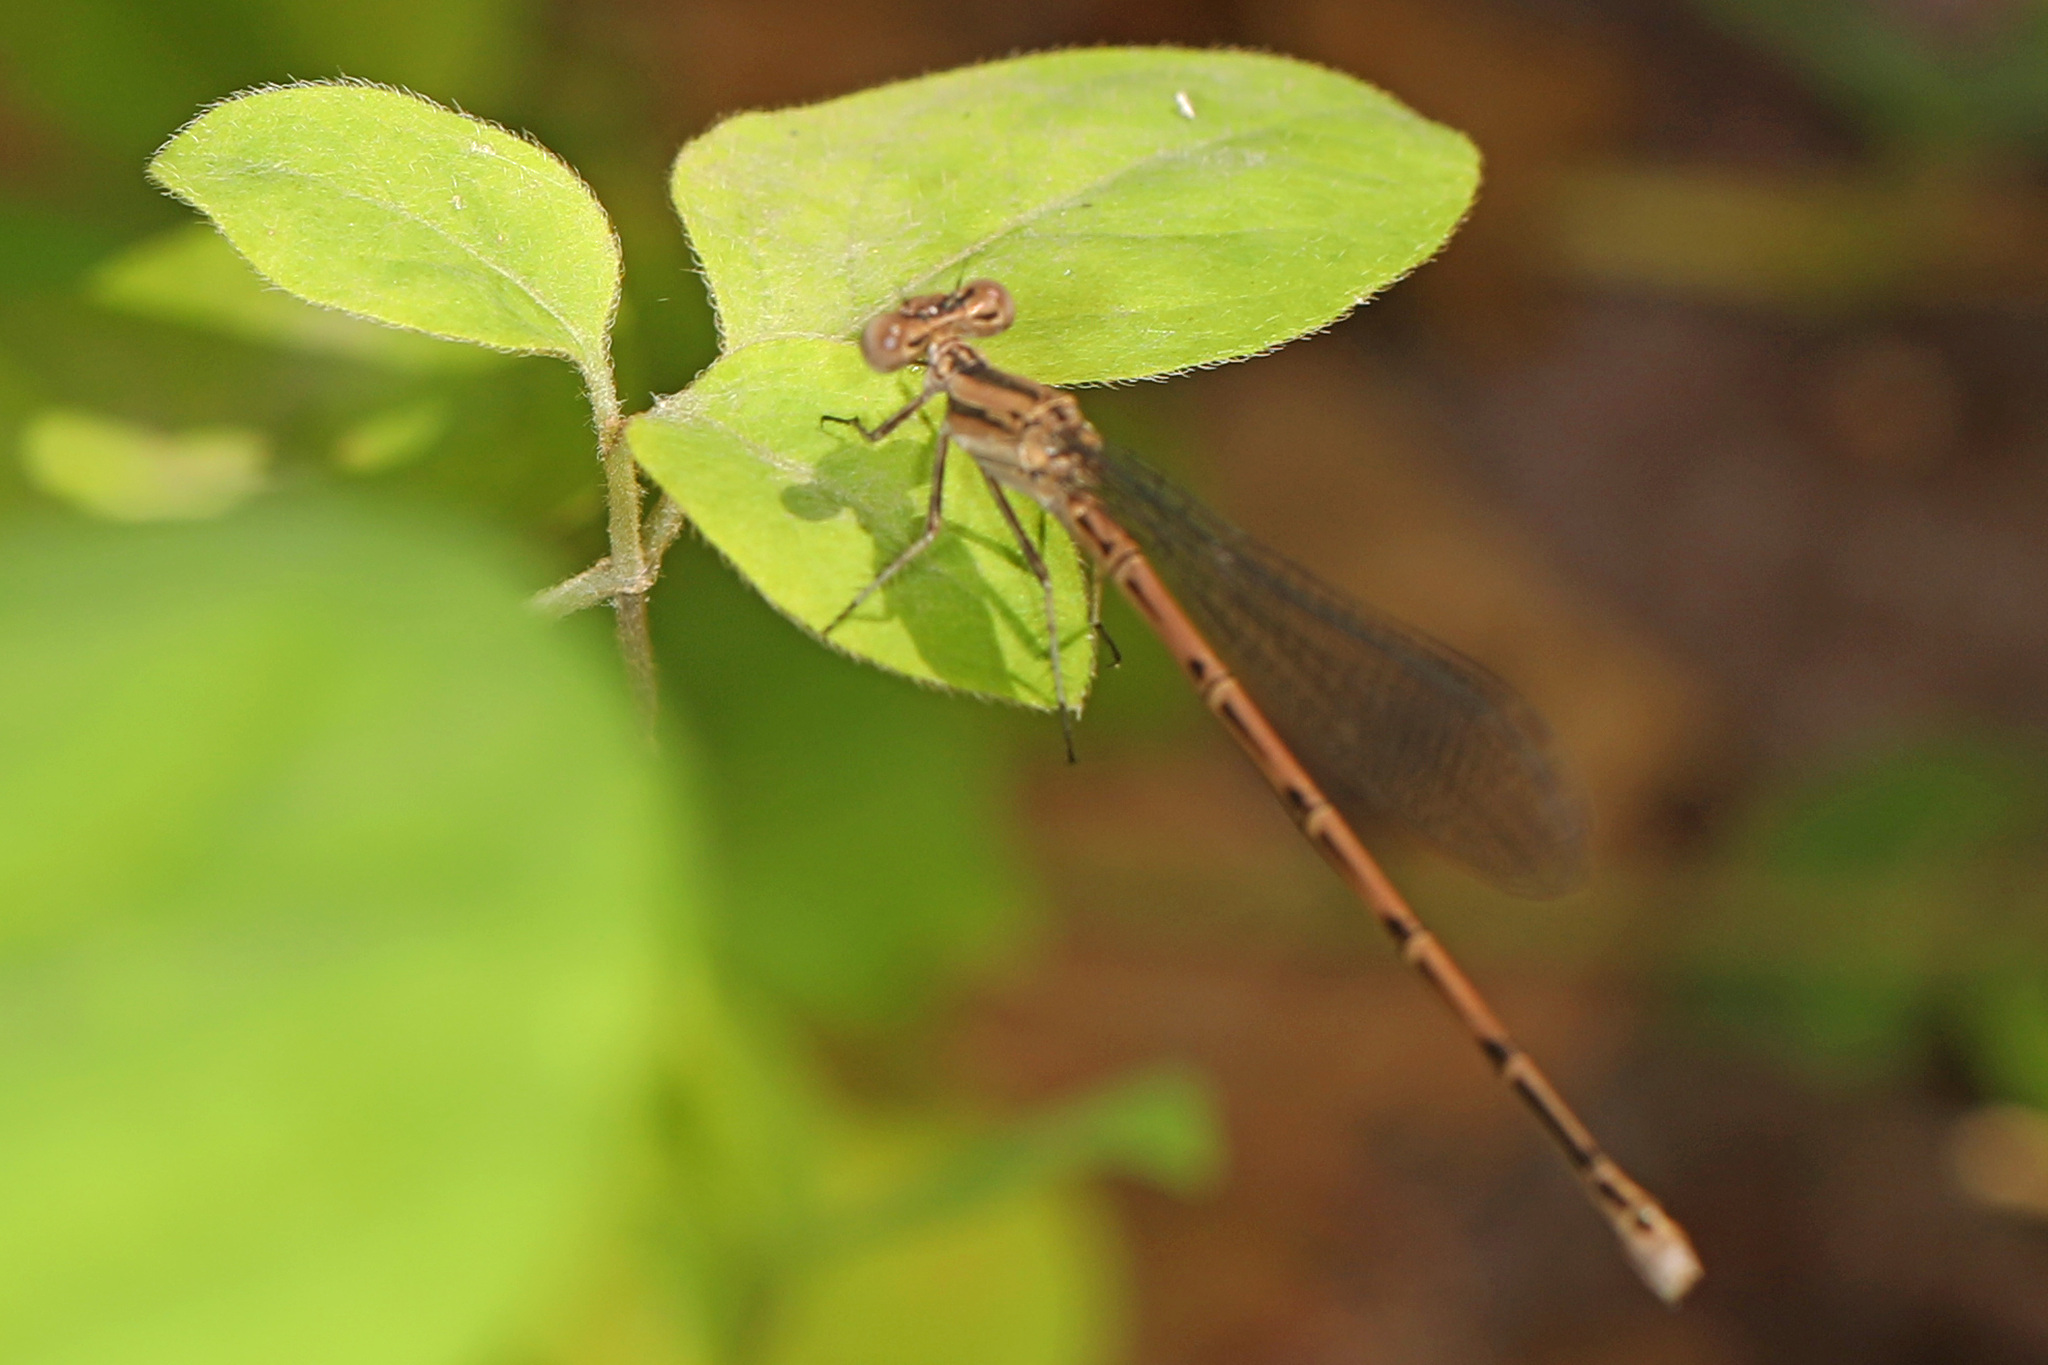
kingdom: Animalia
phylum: Arthropoda
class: Insecta
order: Odonata
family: Coenagrionidae
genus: Argia
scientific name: Argia fumipennis
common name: Variable dancer
